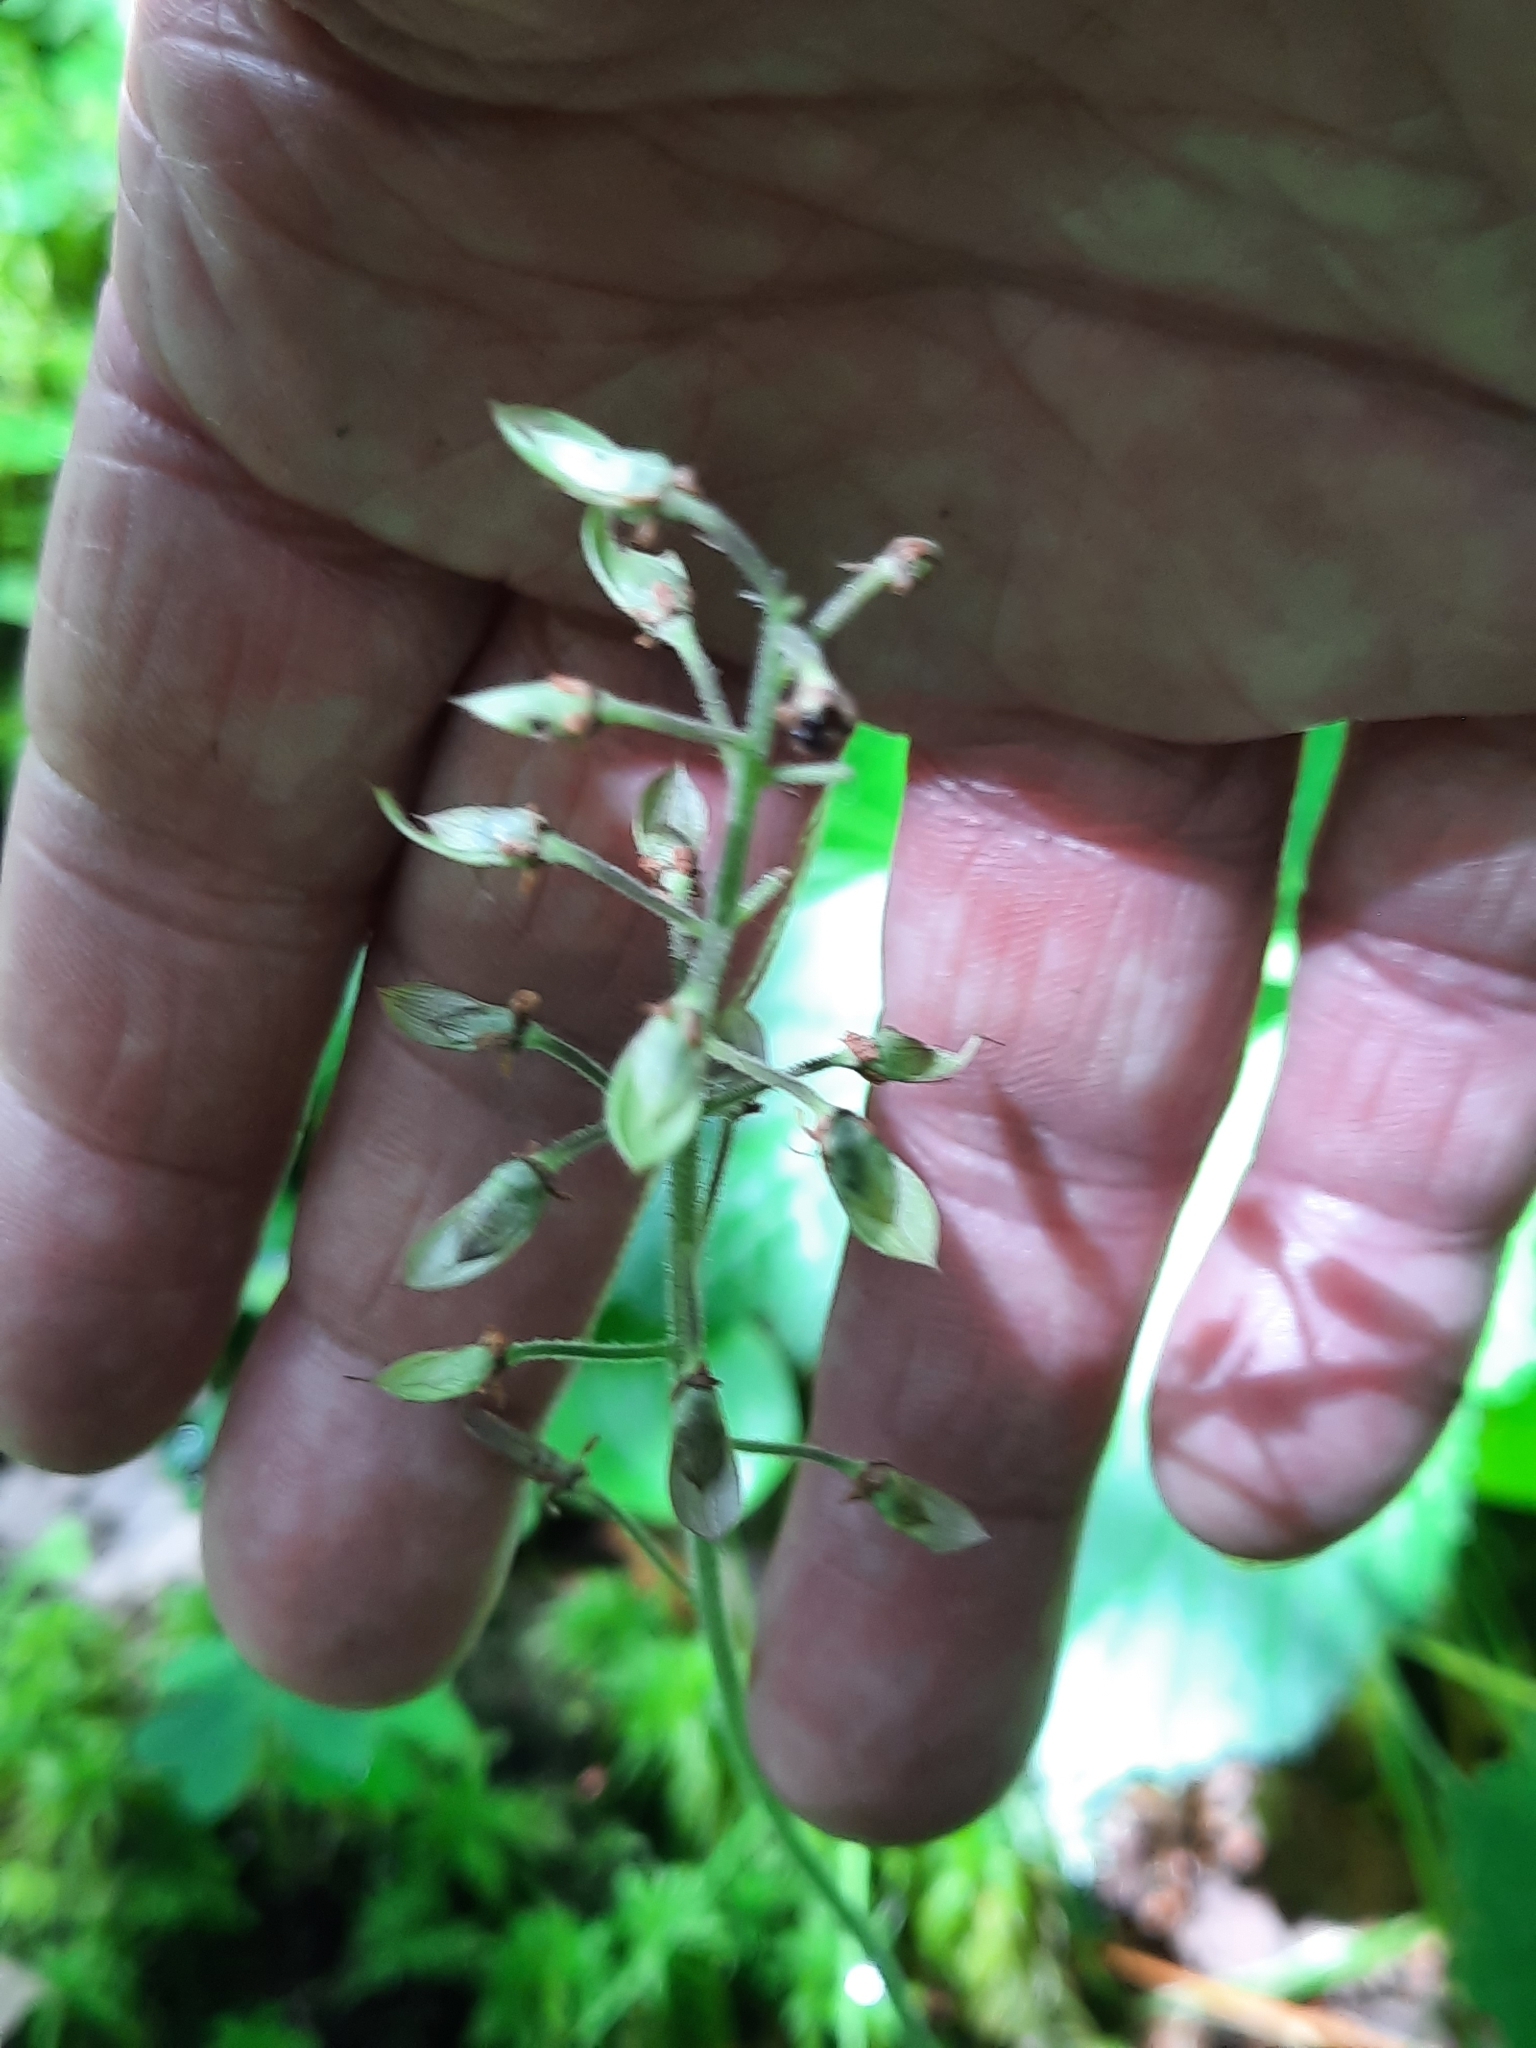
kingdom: Plantae
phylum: Tracheophyta
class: Magnoliopsida
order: Saxifragales
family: Saxifragaceae
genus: Tiarella
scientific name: Tiarella stolonifera
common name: Stoloniferous foamflower
